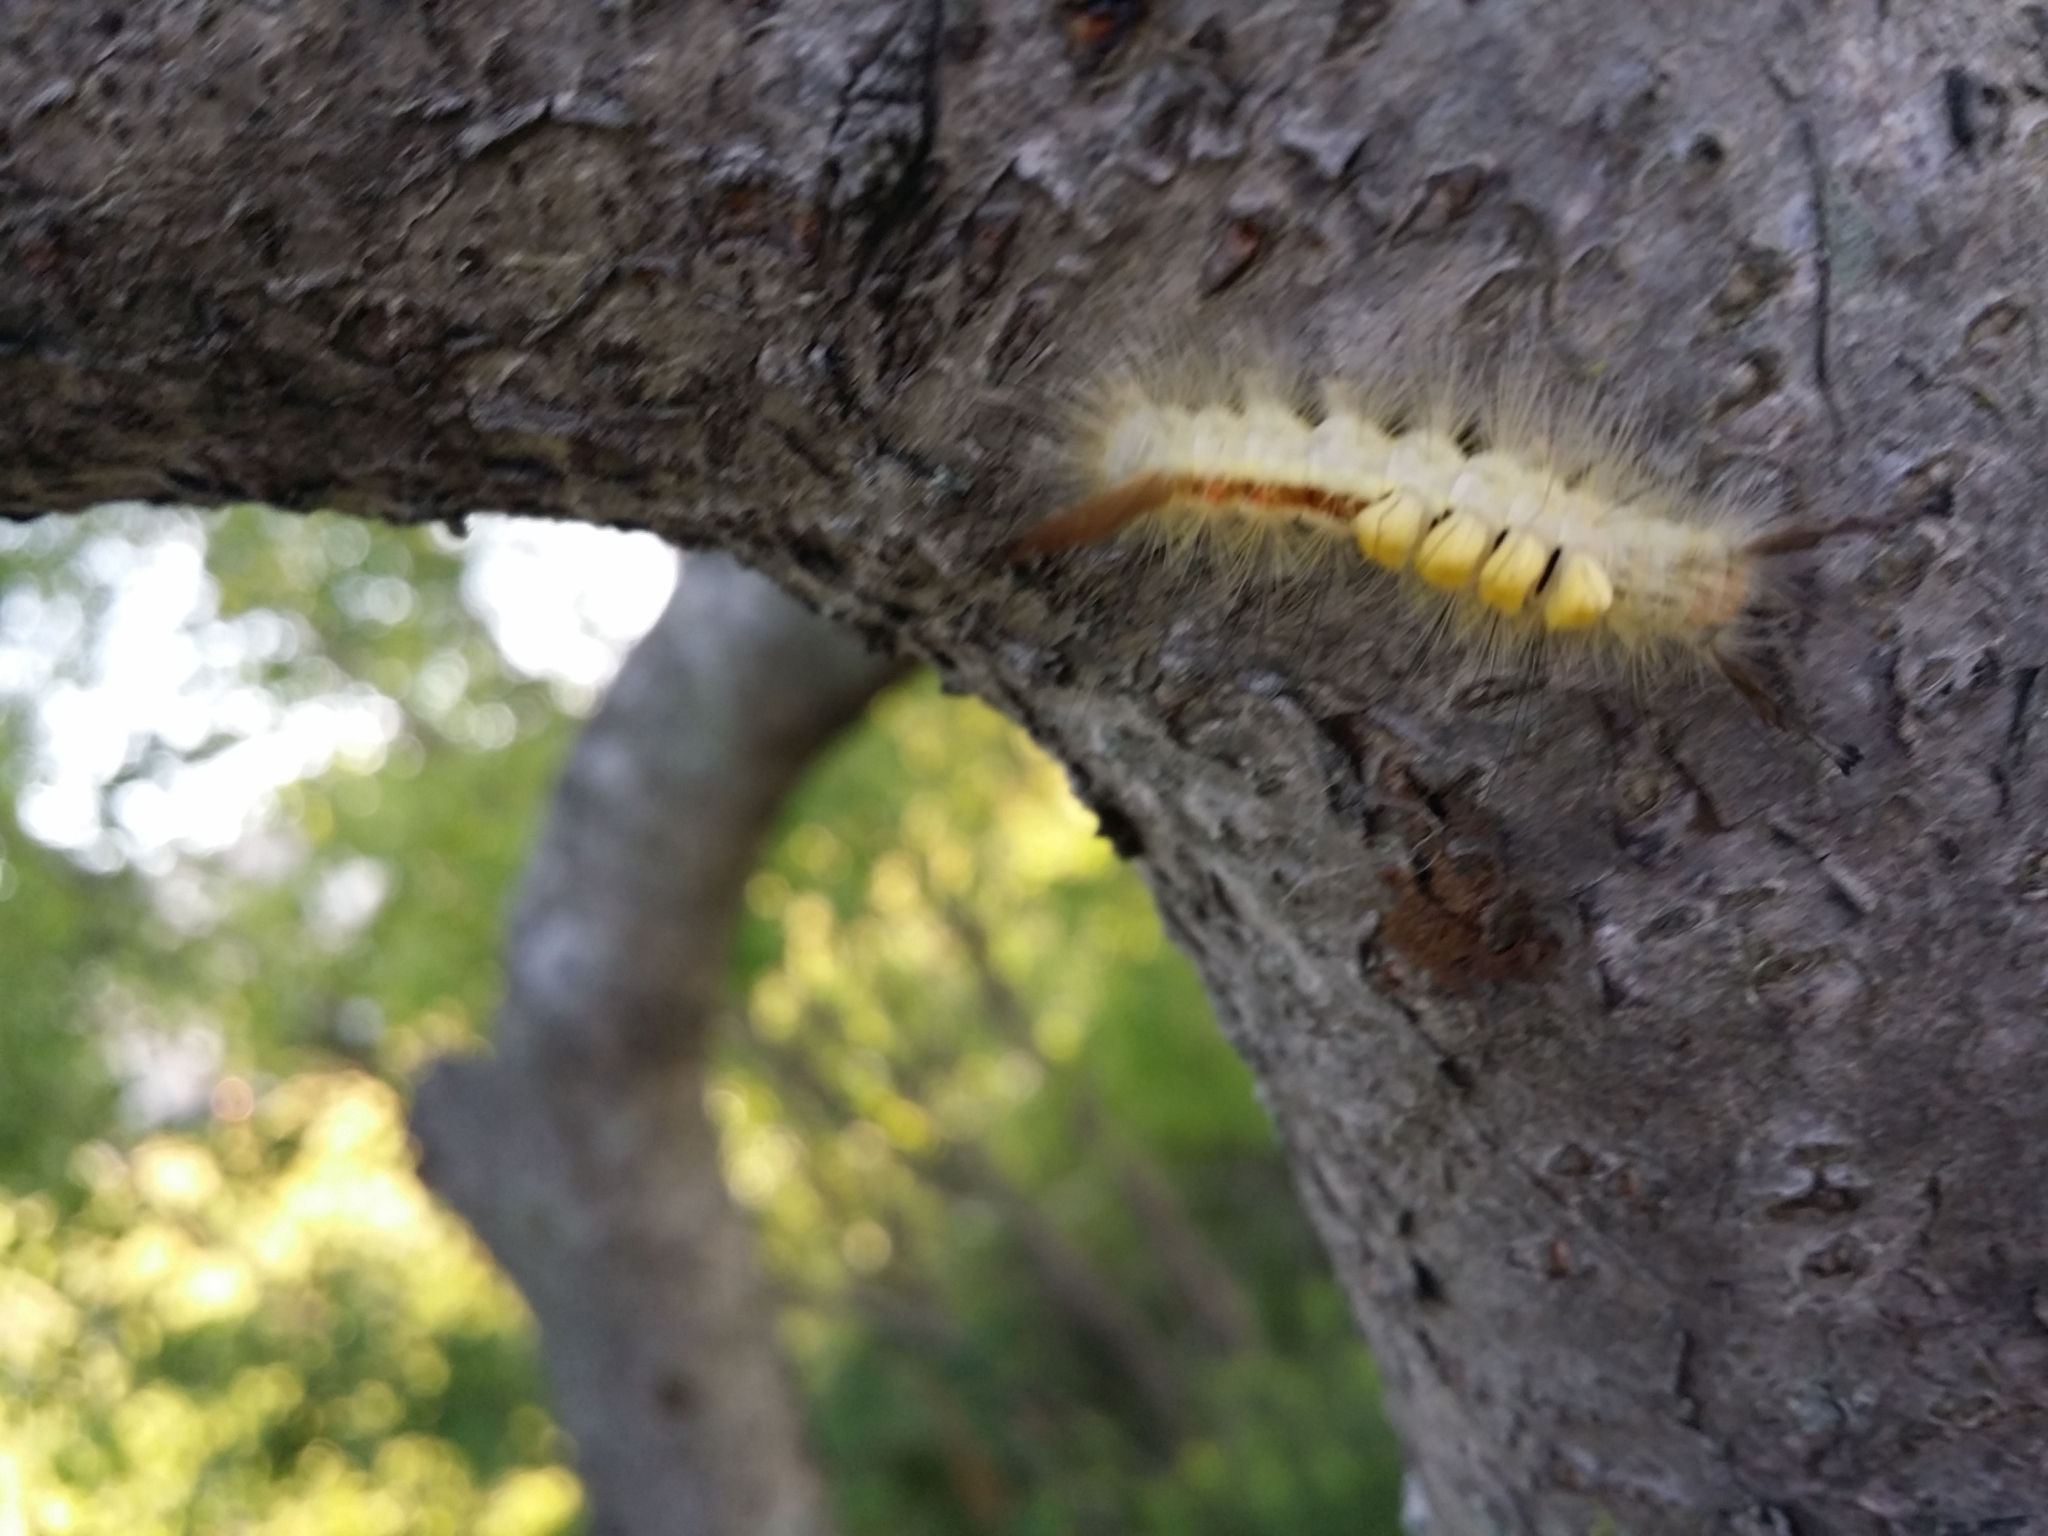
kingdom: Animalia
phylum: Arthropoda
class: Insecta
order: Lepidoptera
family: Erebidae
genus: Orgyia
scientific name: Orgyia leucostigma
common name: White-marked tussock moth
